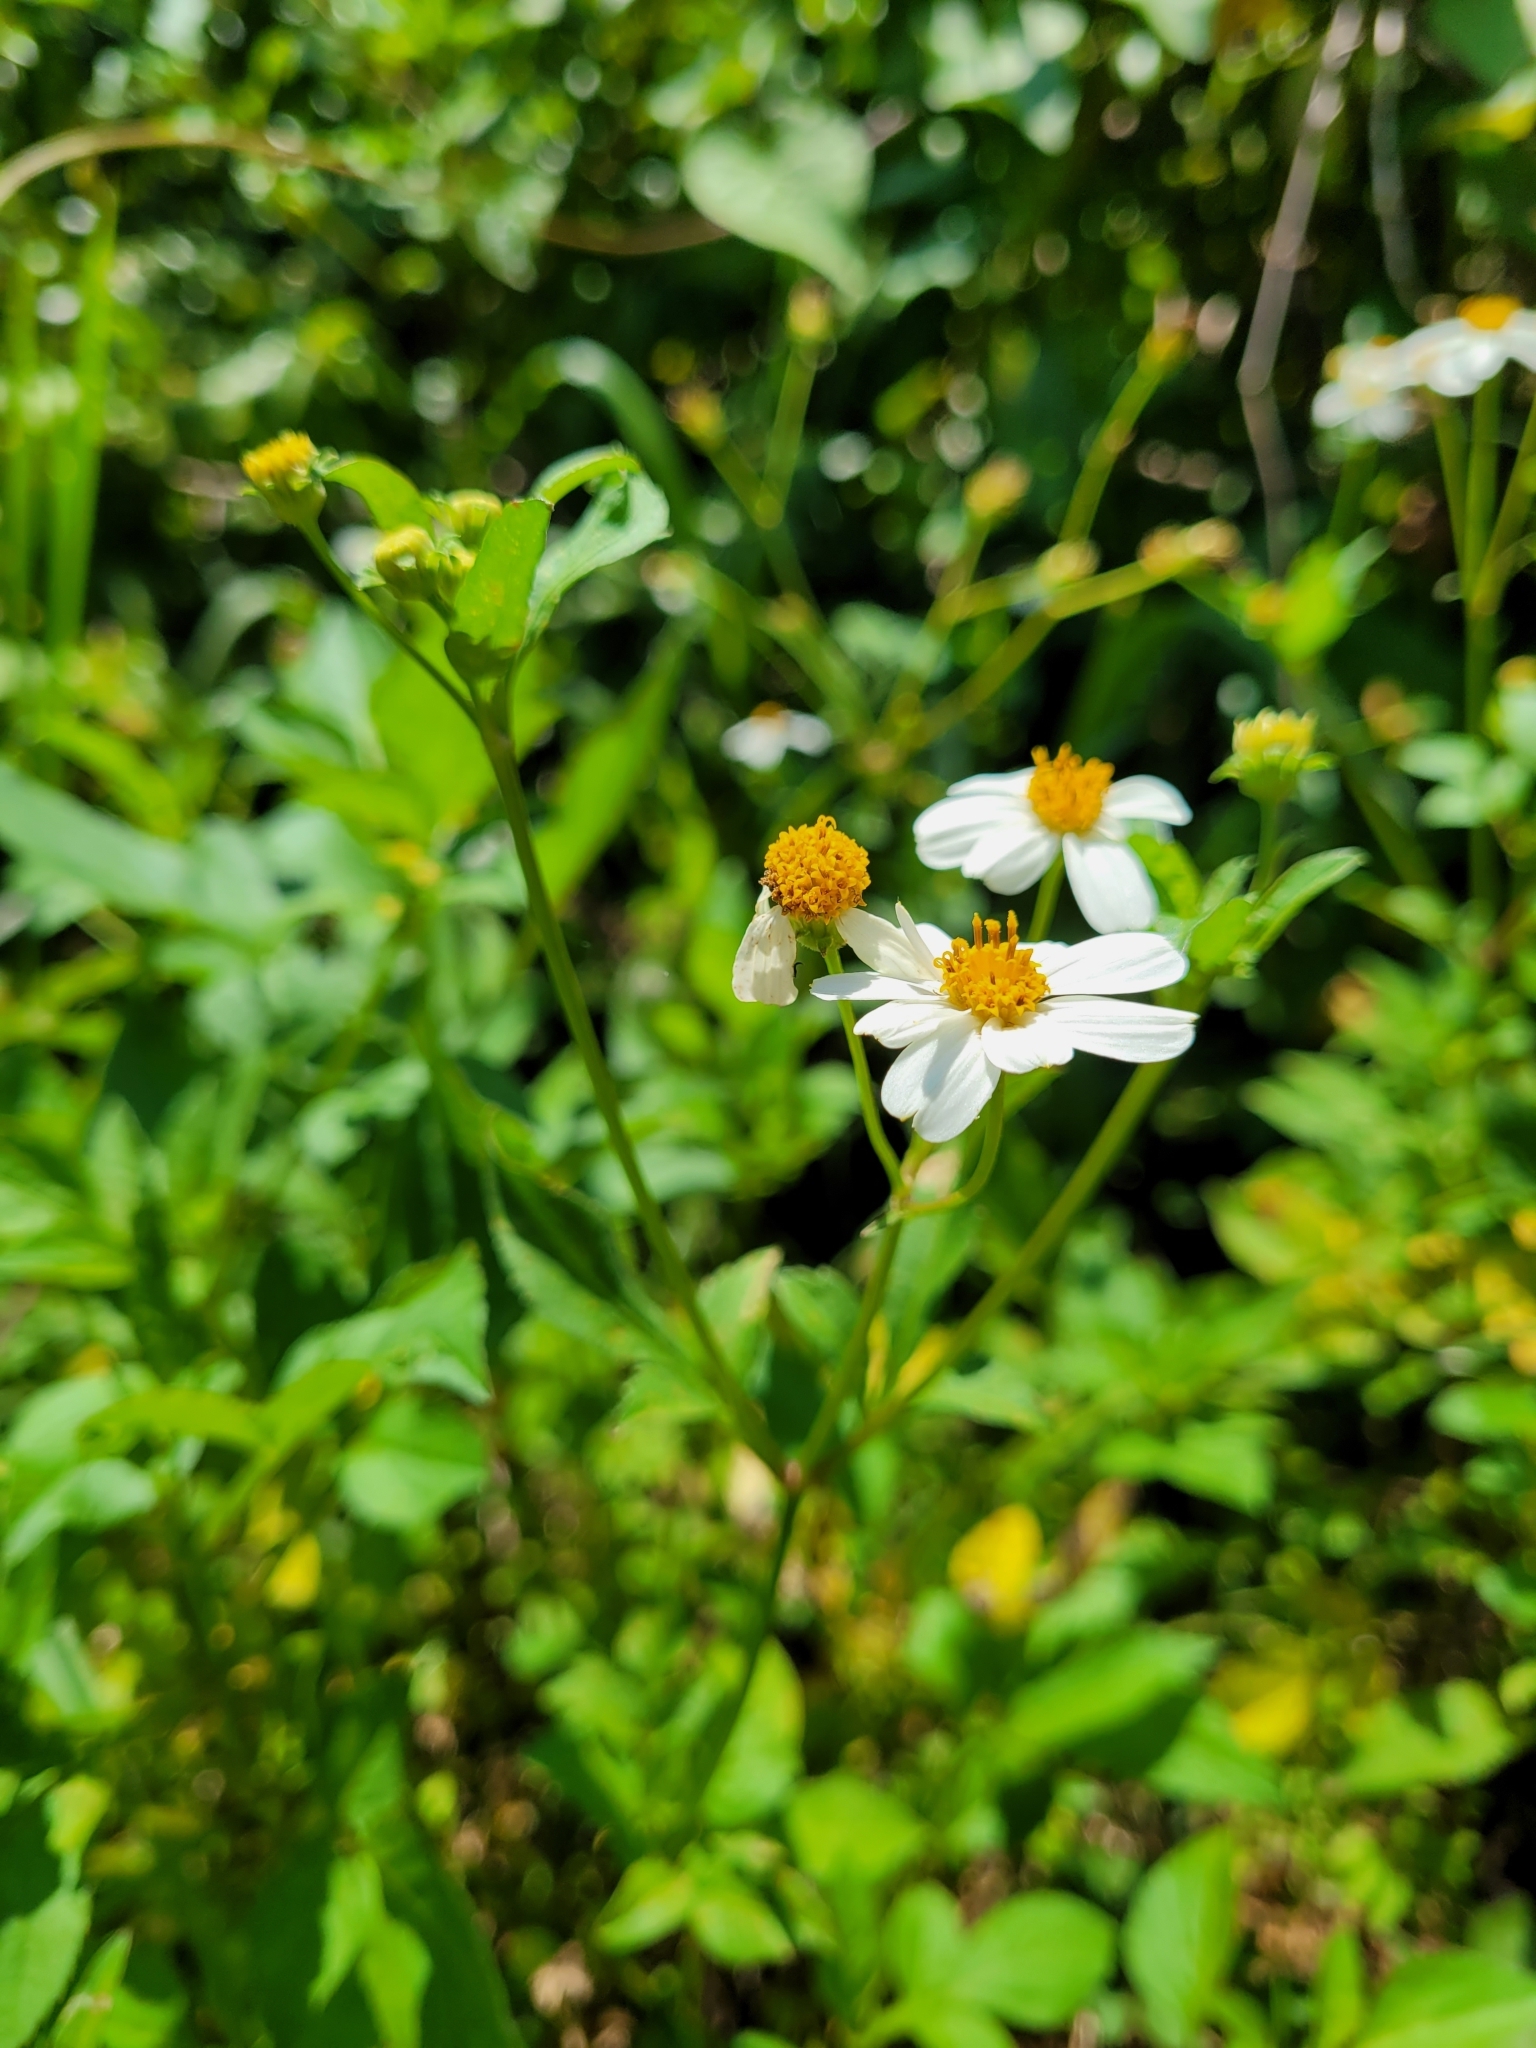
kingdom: Plantae
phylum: Tracheophyta
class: Magnoliopsida
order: Asterales
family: Asteraceae
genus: Bidens
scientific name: Bidens alba
